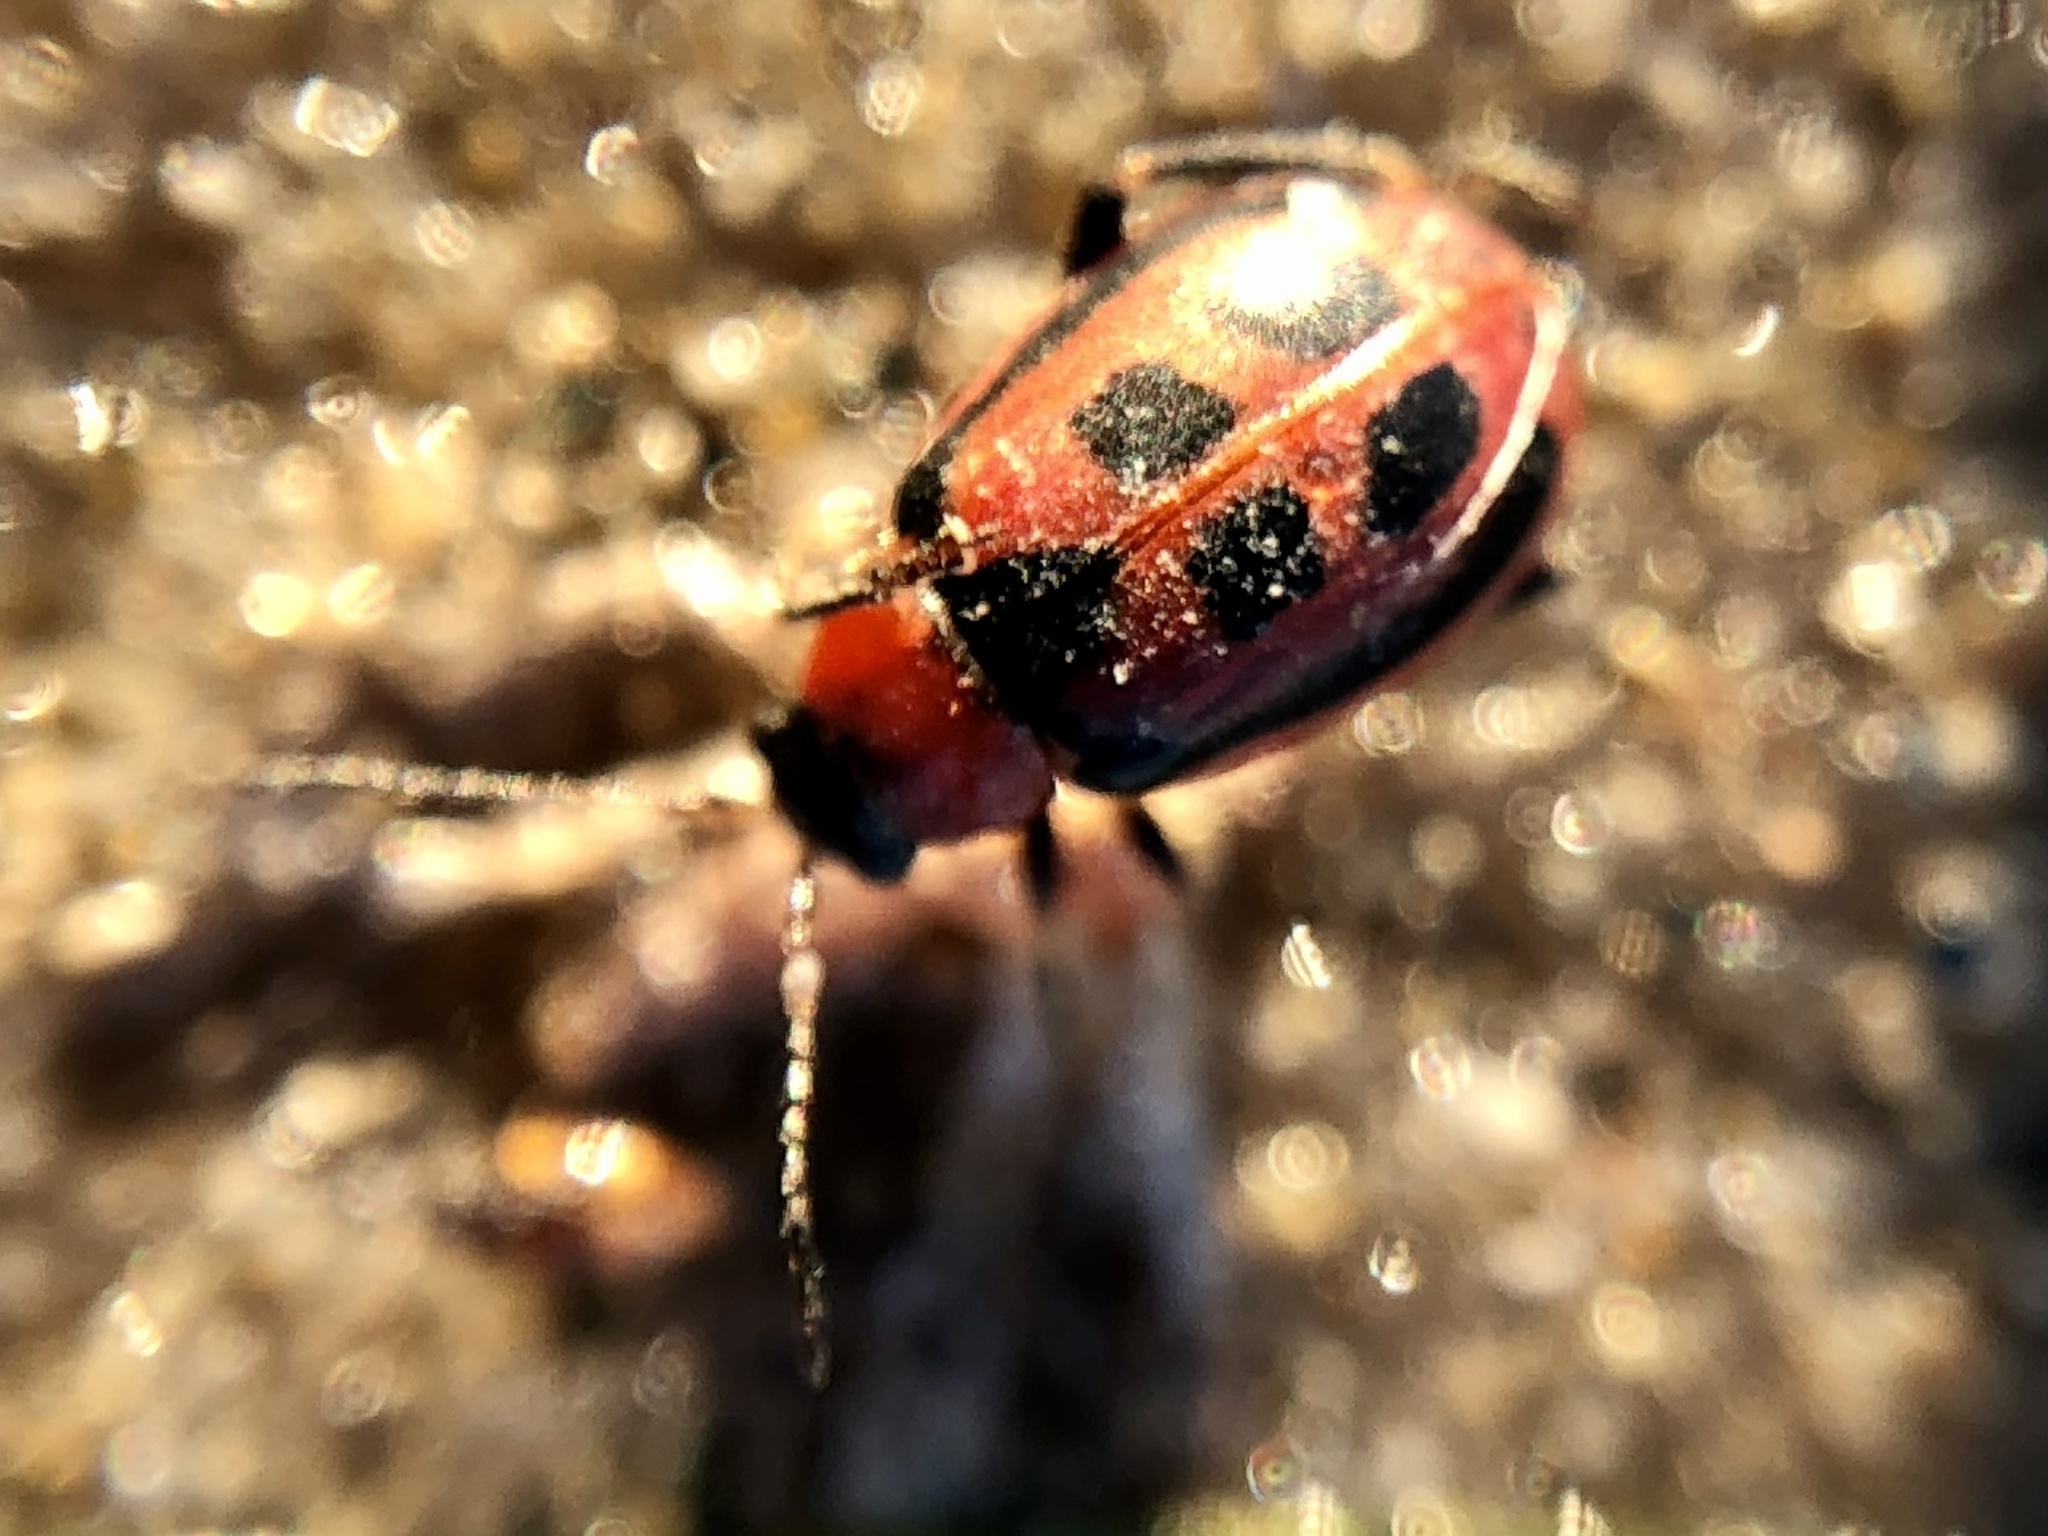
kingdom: Animalia
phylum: Arthropoda
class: Insecta
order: Coleoptera
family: Chrysomelidae
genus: Cerotoma
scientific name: Cerotoma trifurcata
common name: Bean leaf beetle
